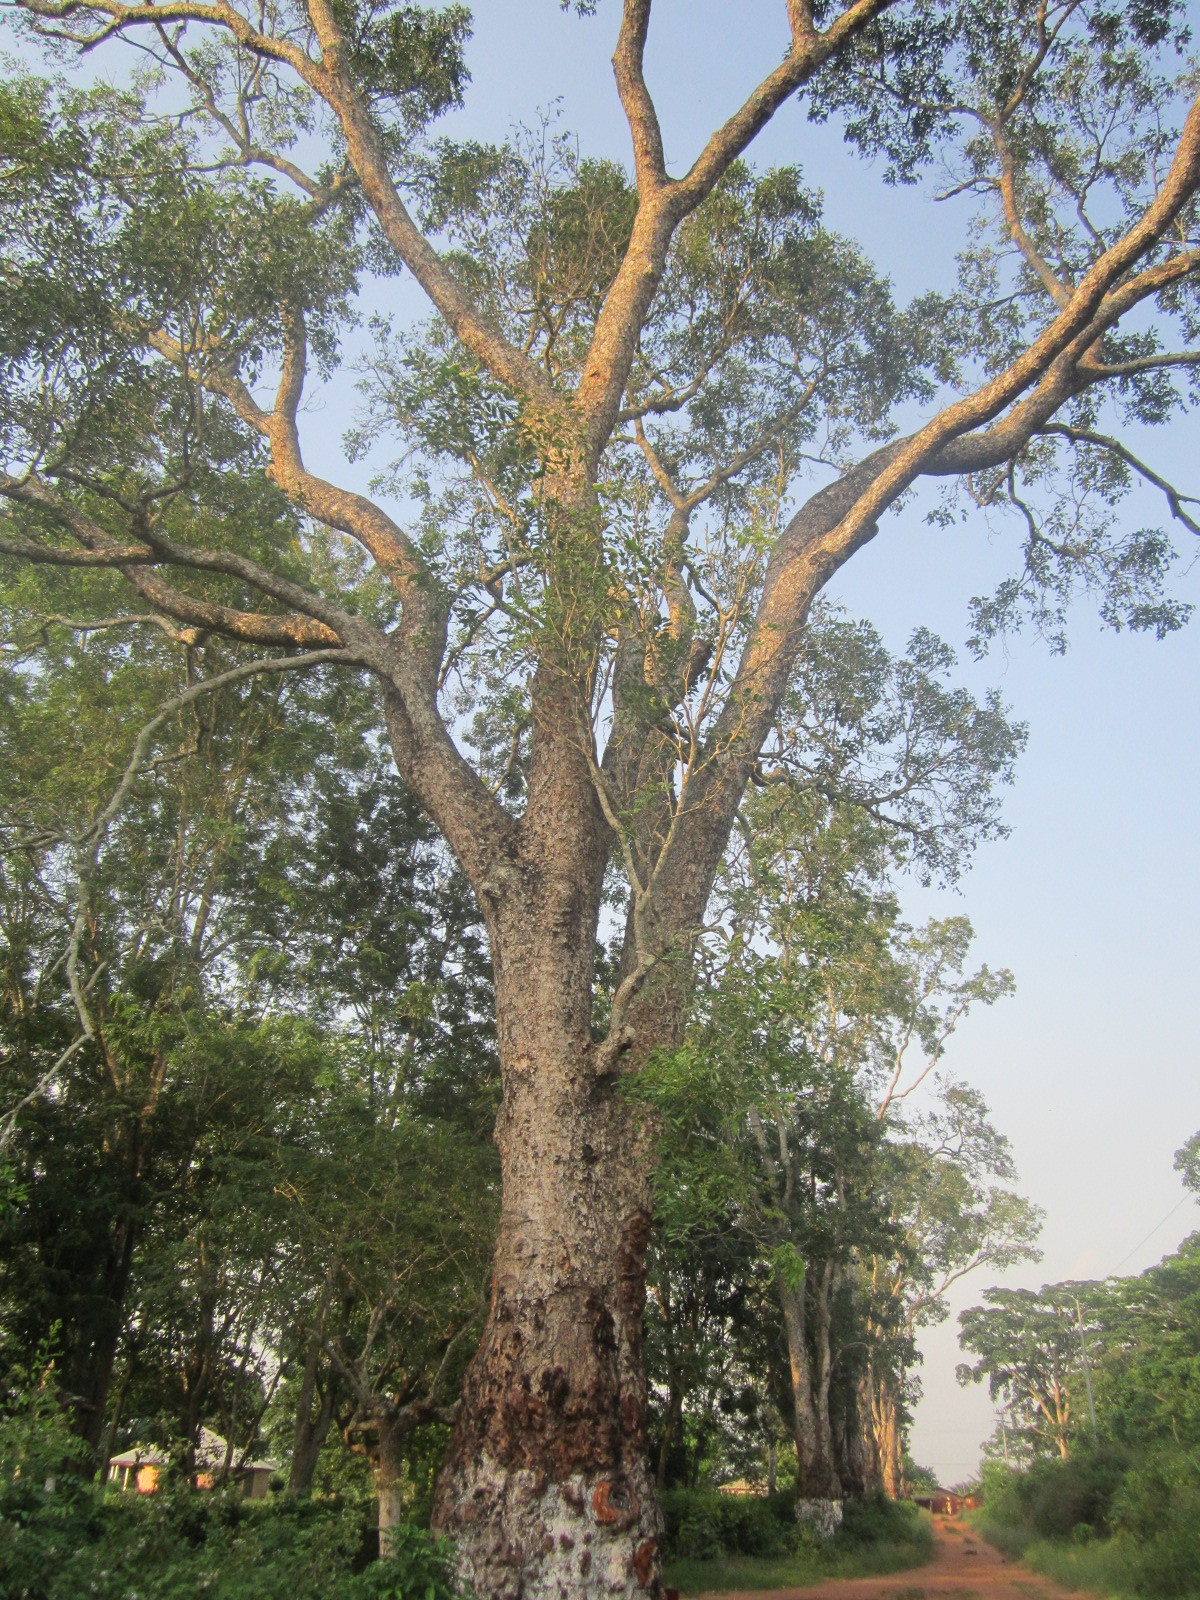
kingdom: Plantae
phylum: Tracheophyta
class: Magnoliopsida
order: Sapindales
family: Meliaceae
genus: Khaya
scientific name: Khaya senegalensis
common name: Senegal mahogany
